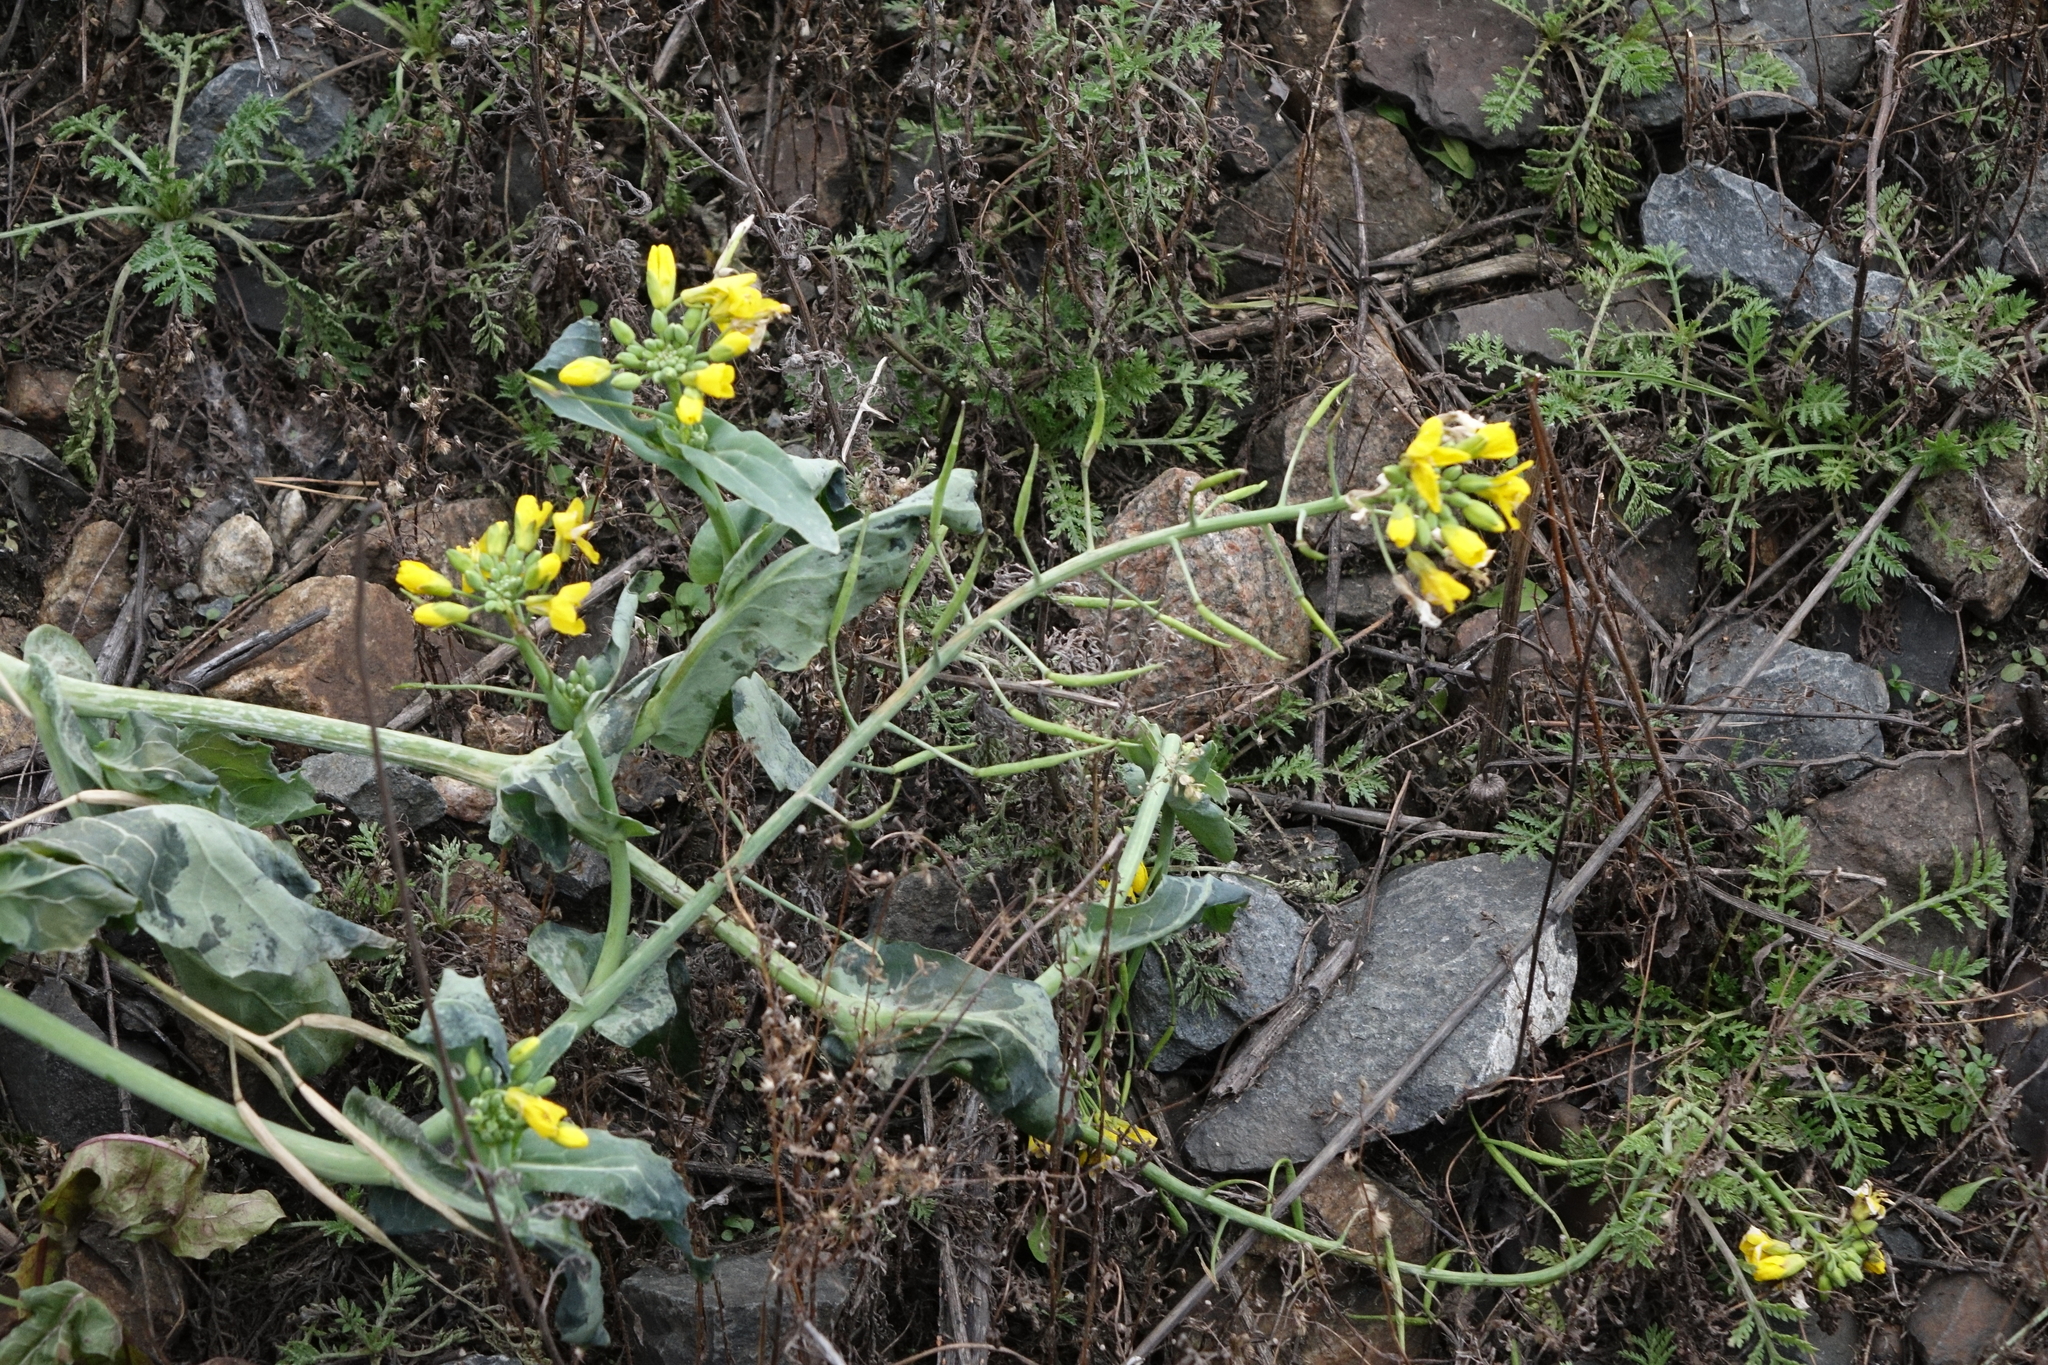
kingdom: Plantae
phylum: Tracheophyta
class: Magnoliopsida
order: Brassicales
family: Brassicaceae
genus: Brassica
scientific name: Brassica napus
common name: Rape
